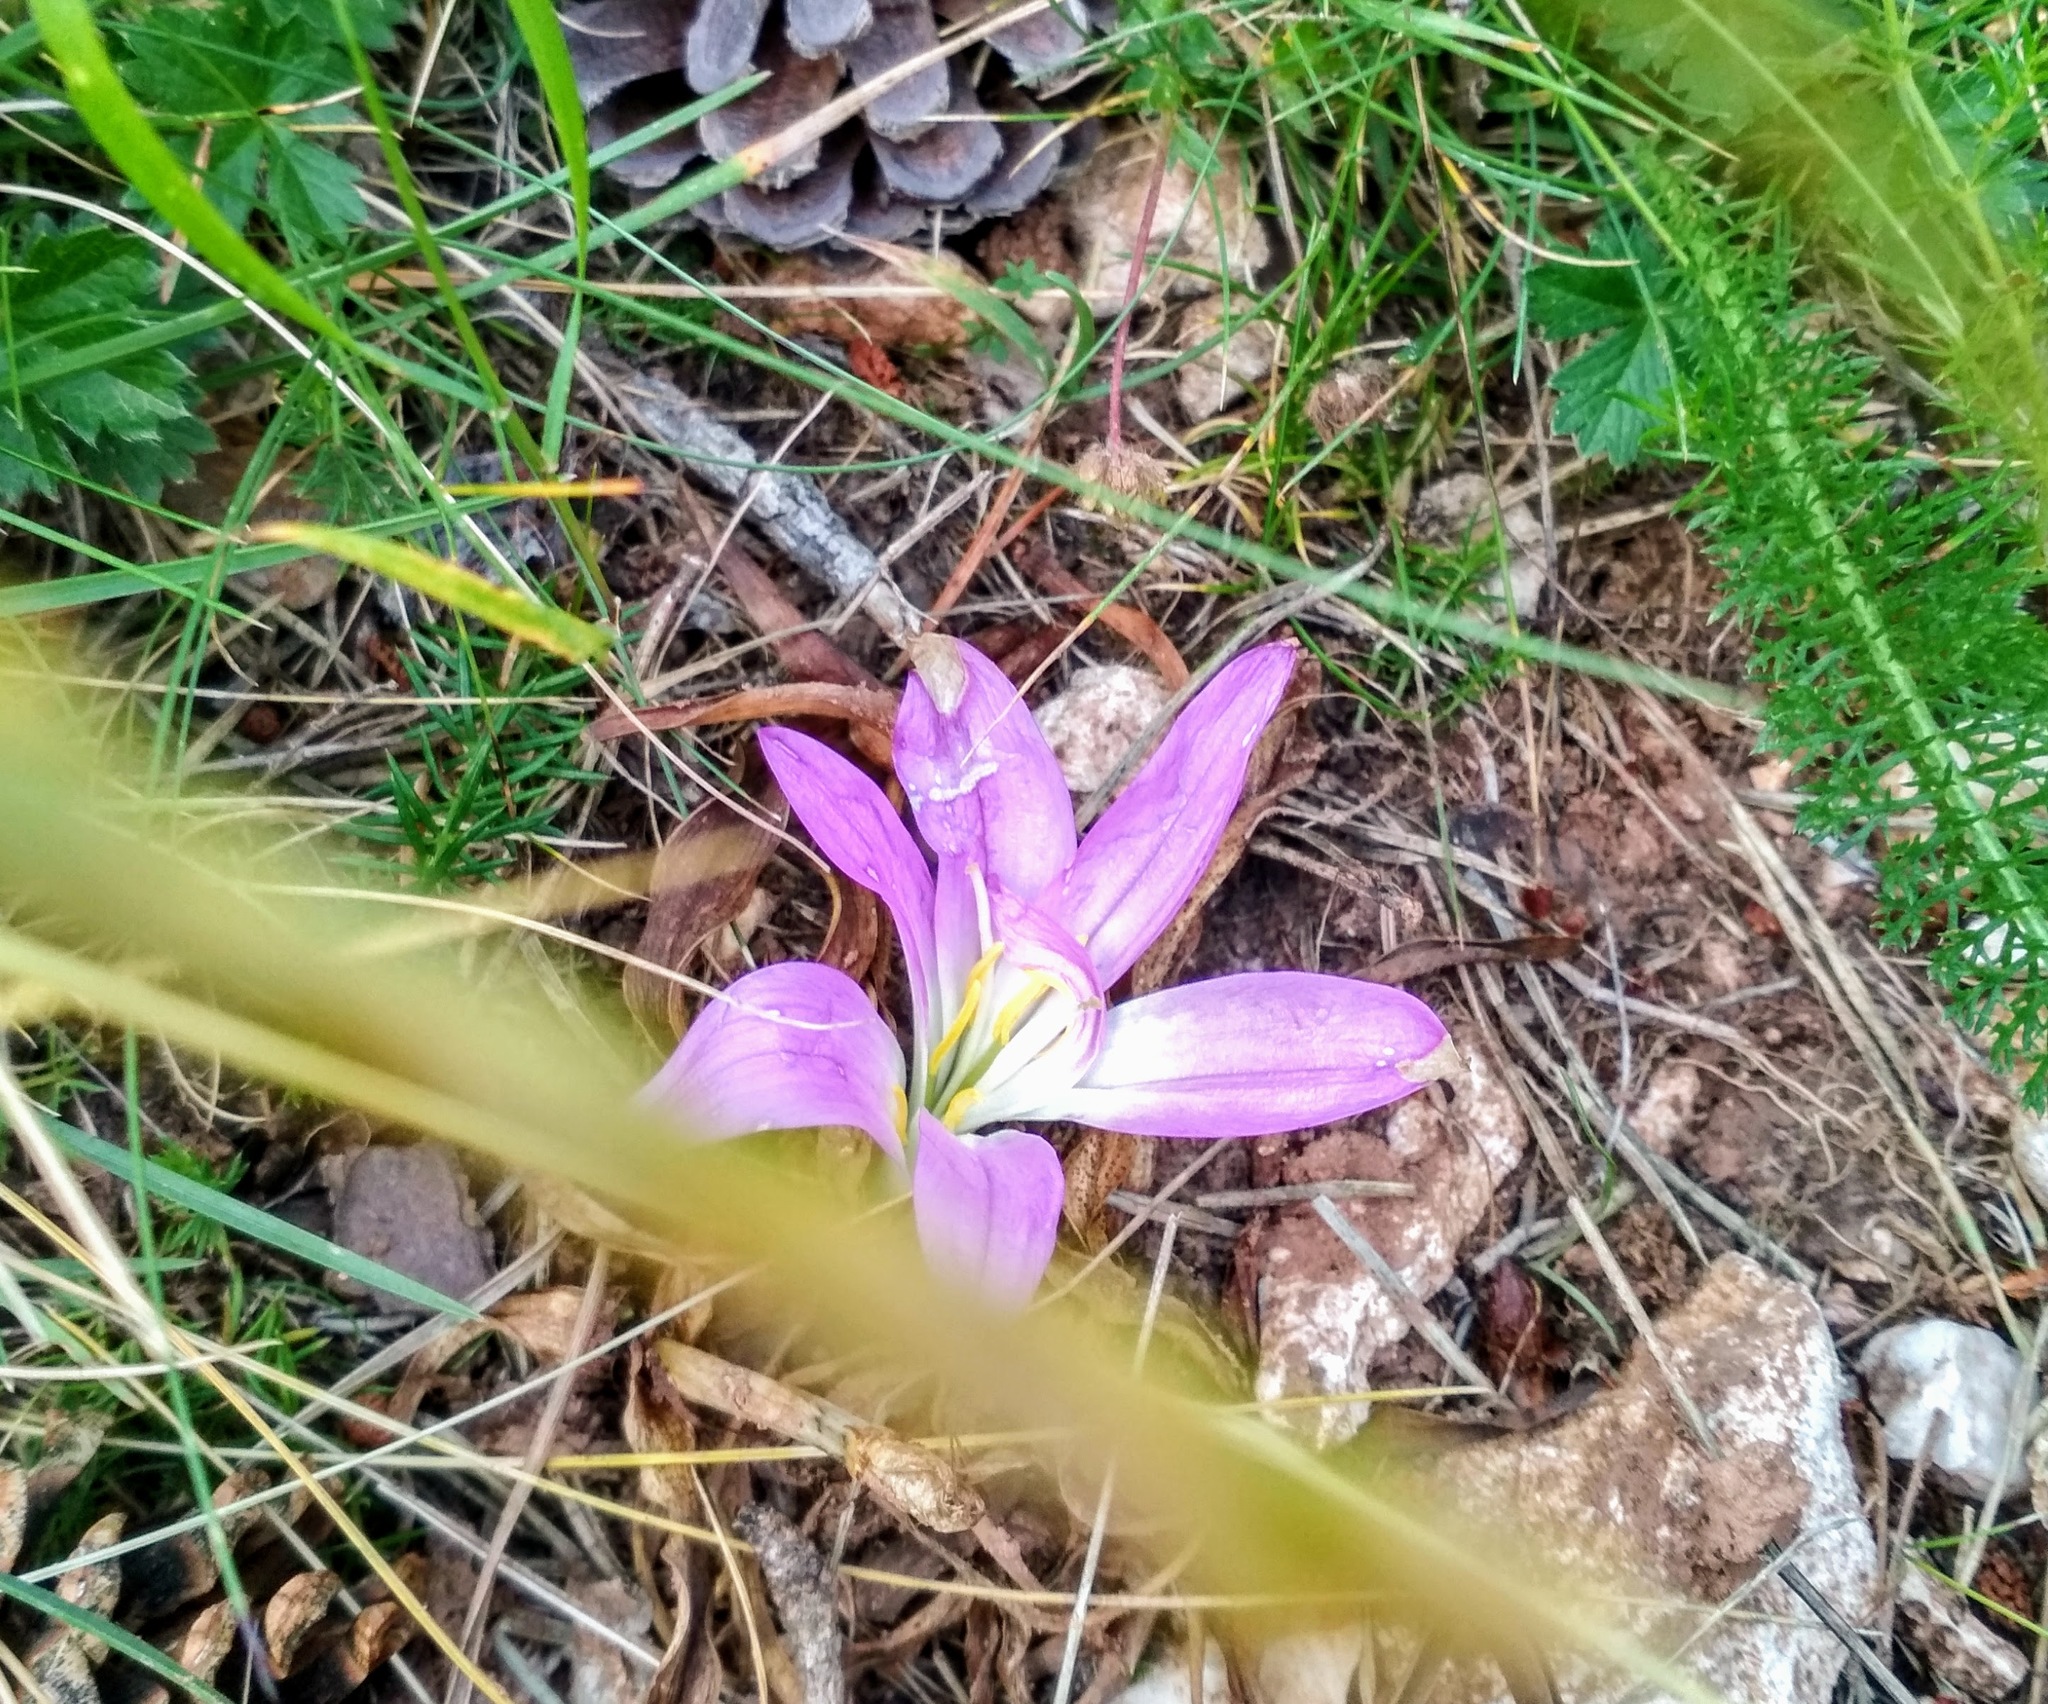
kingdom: Plantae
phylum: Tracheophyta
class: Liliopsida
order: Liliales
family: Colchicaceae
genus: Colchicum
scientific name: Colchicum montanum
